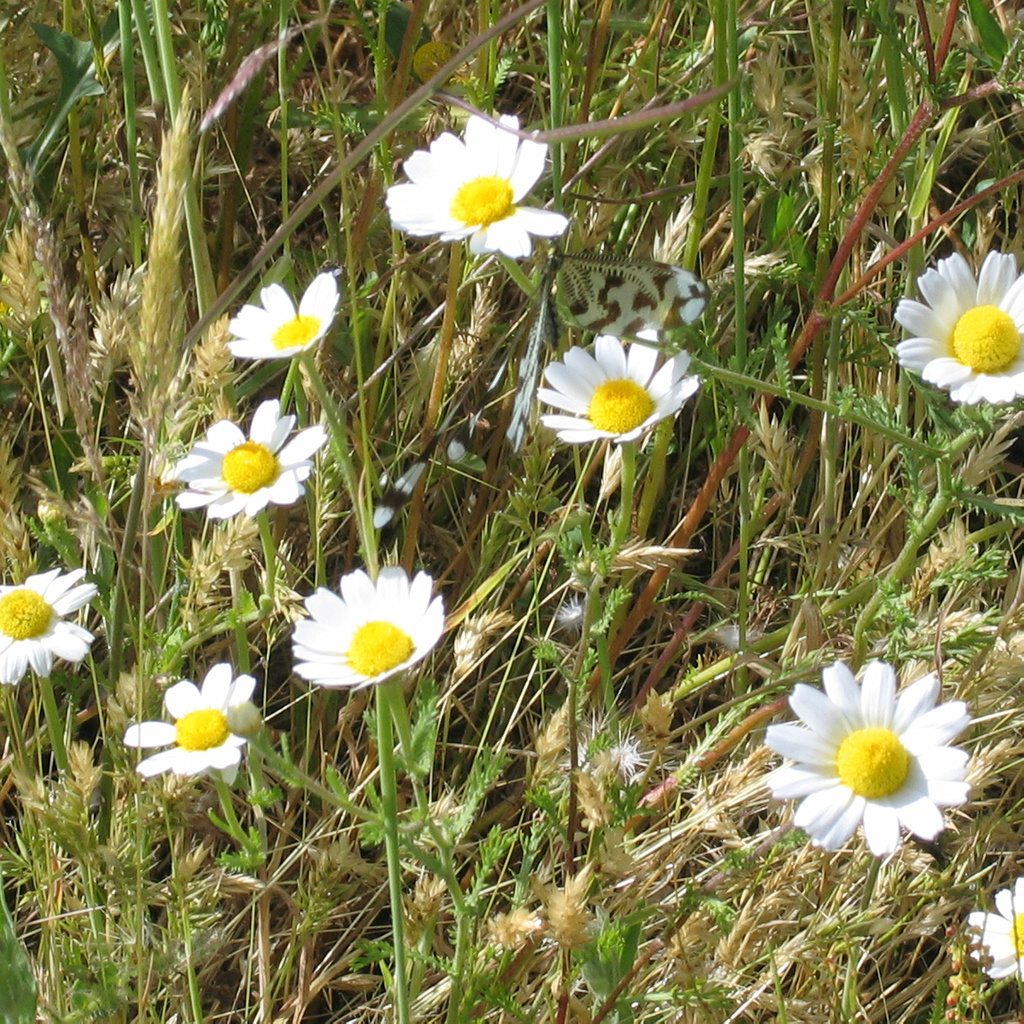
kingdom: Animalia
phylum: Arthropoda
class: Insecta
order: Neuroptera
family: Nemopteridae
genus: Nemoptera
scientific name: Nemoptera bipennis
